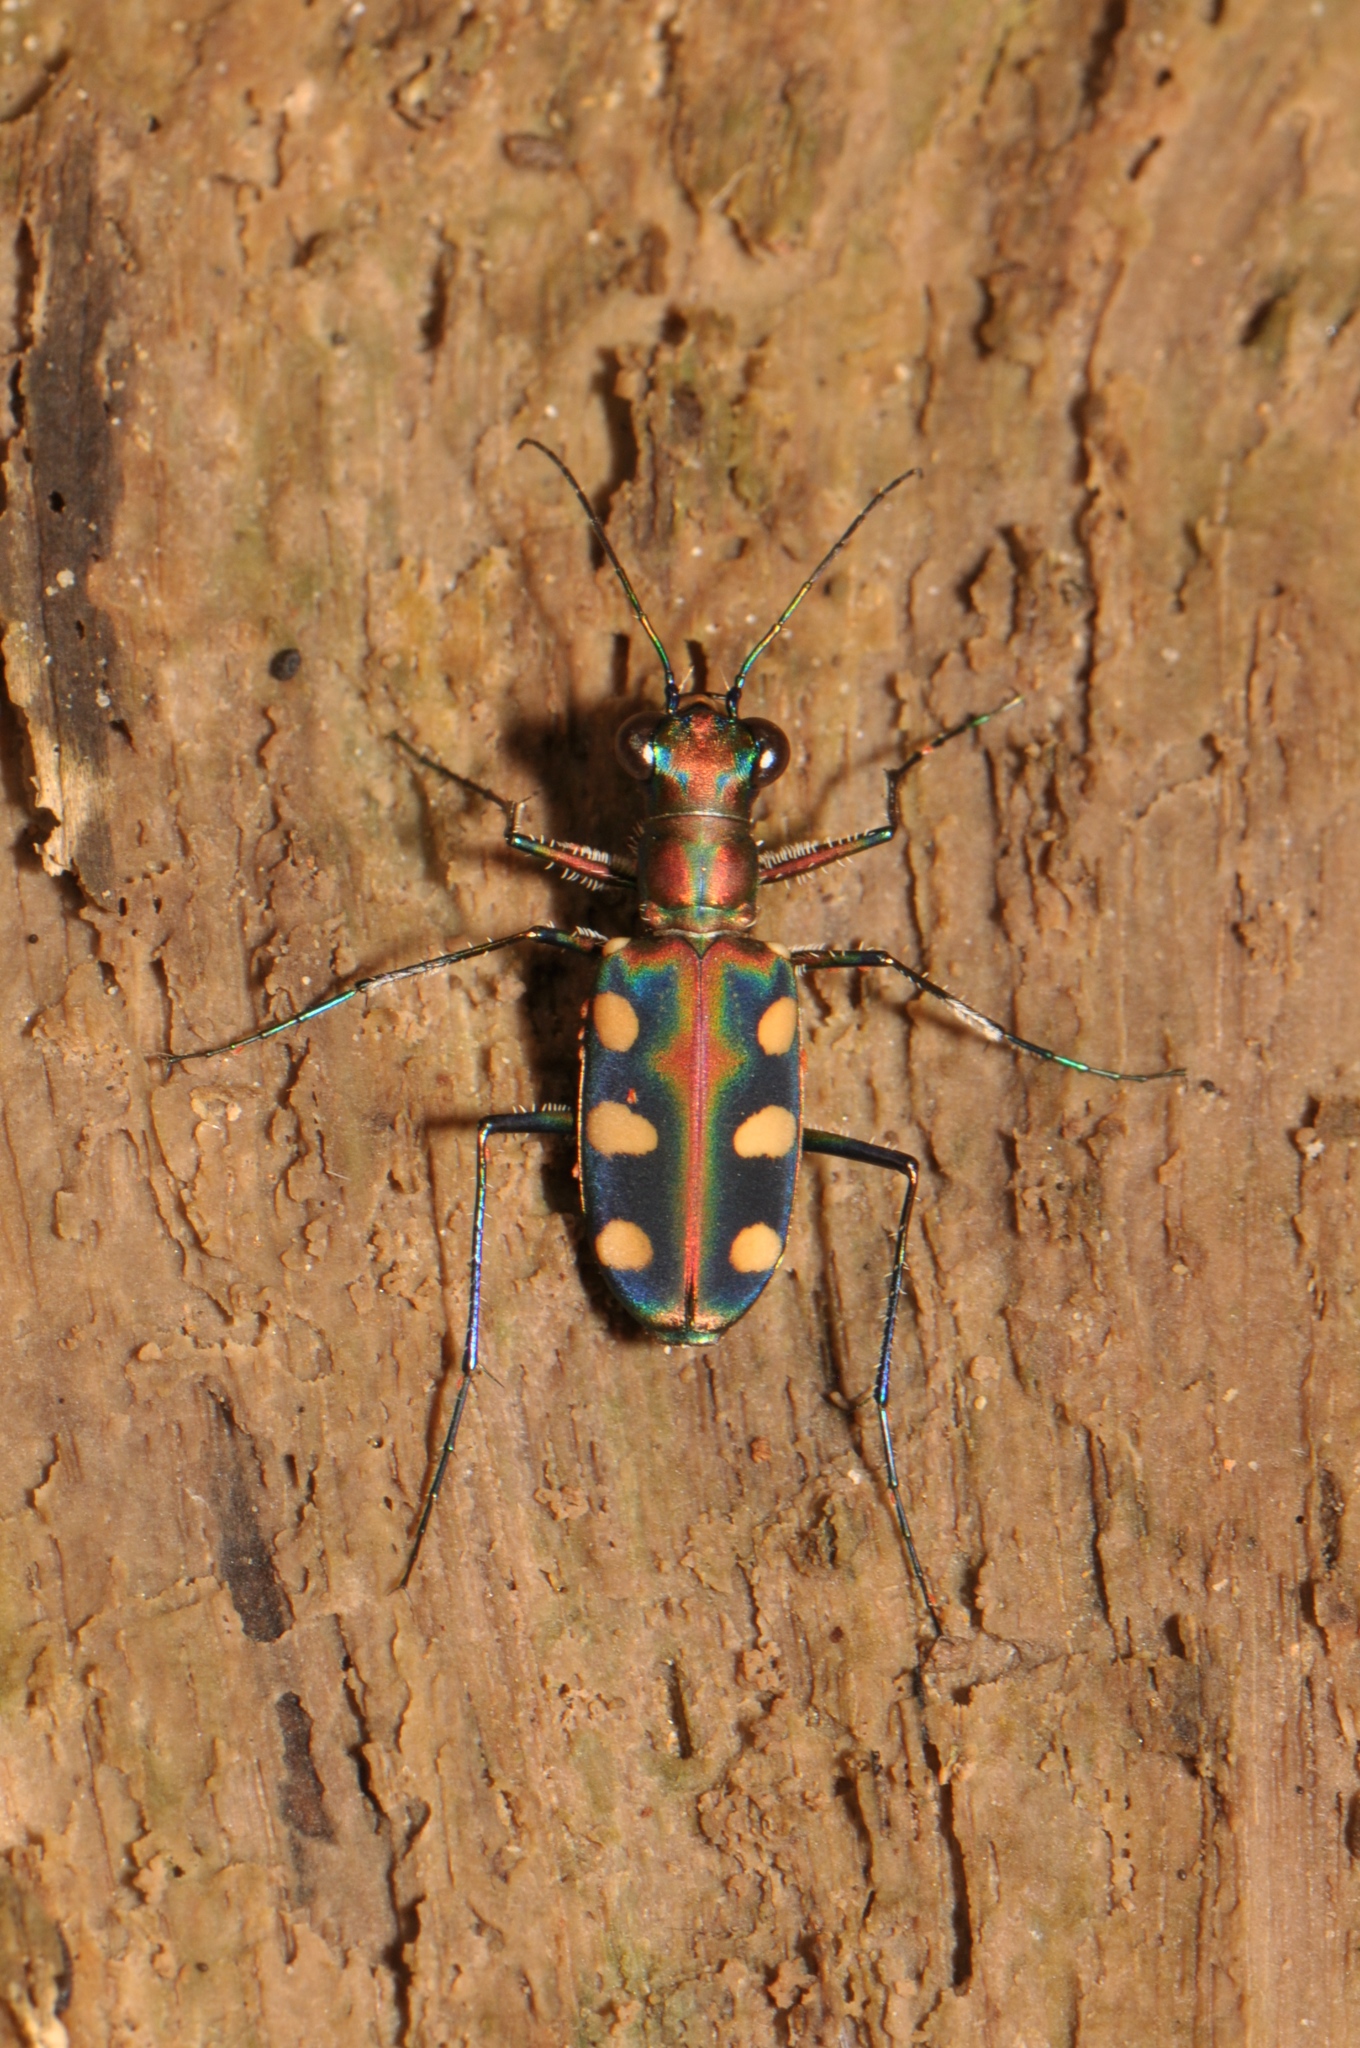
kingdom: Animalia
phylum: Arthropoda
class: Insecta
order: Coleoptera
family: Carabidae
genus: Cicindela
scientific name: Cicindela aurulenta
